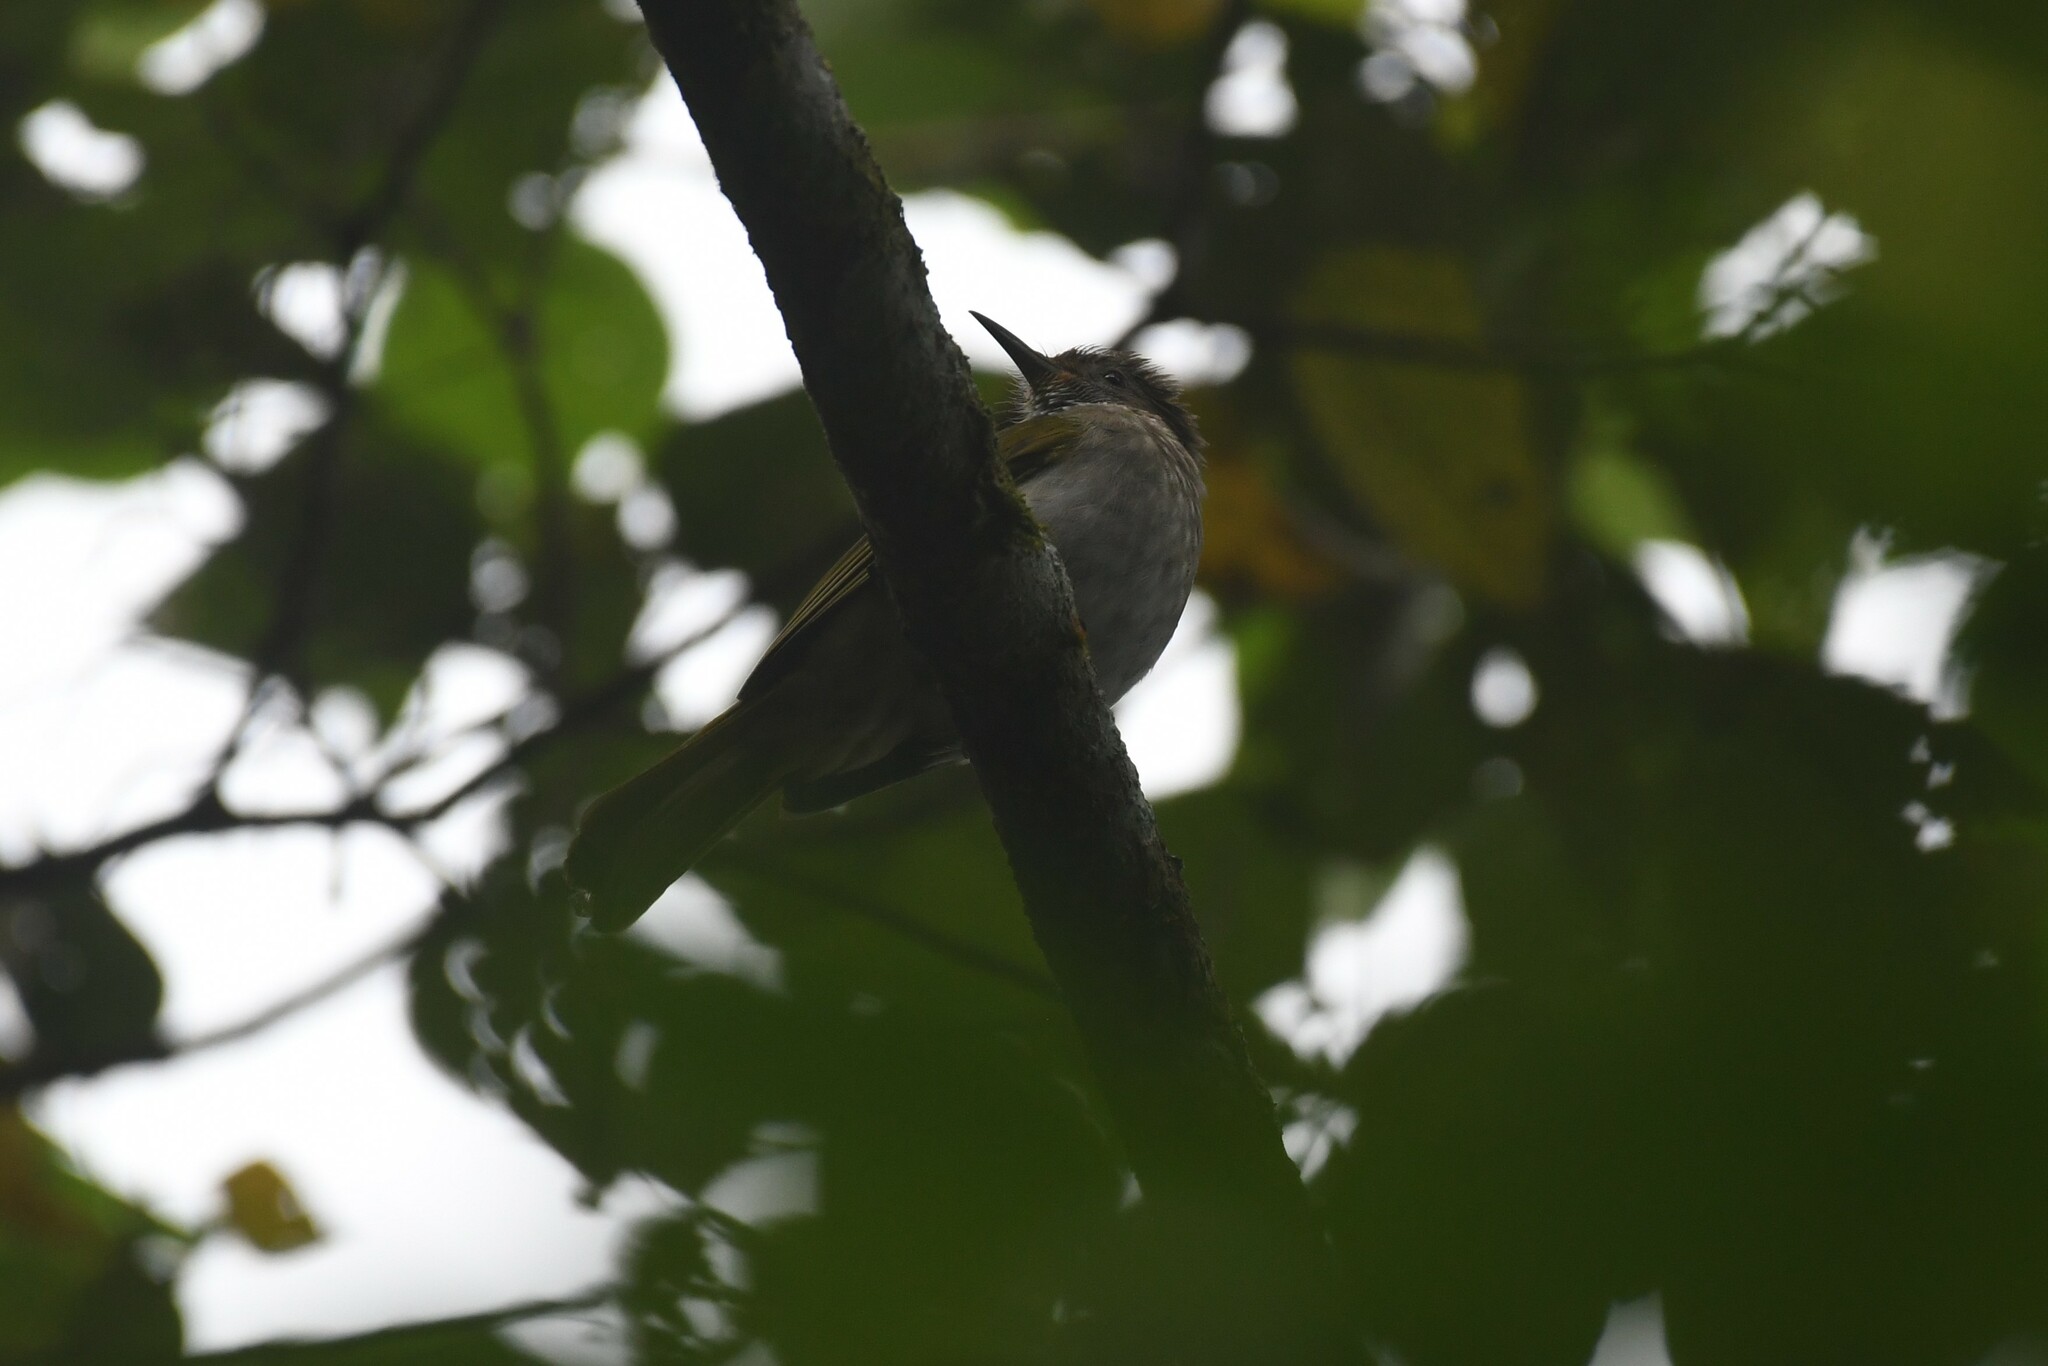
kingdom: Animalia
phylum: Chordata
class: Aves
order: Passeriformes
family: Pycnonotidae
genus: Ixos
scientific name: Ixos mcclellandii
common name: Mountain bulbul
